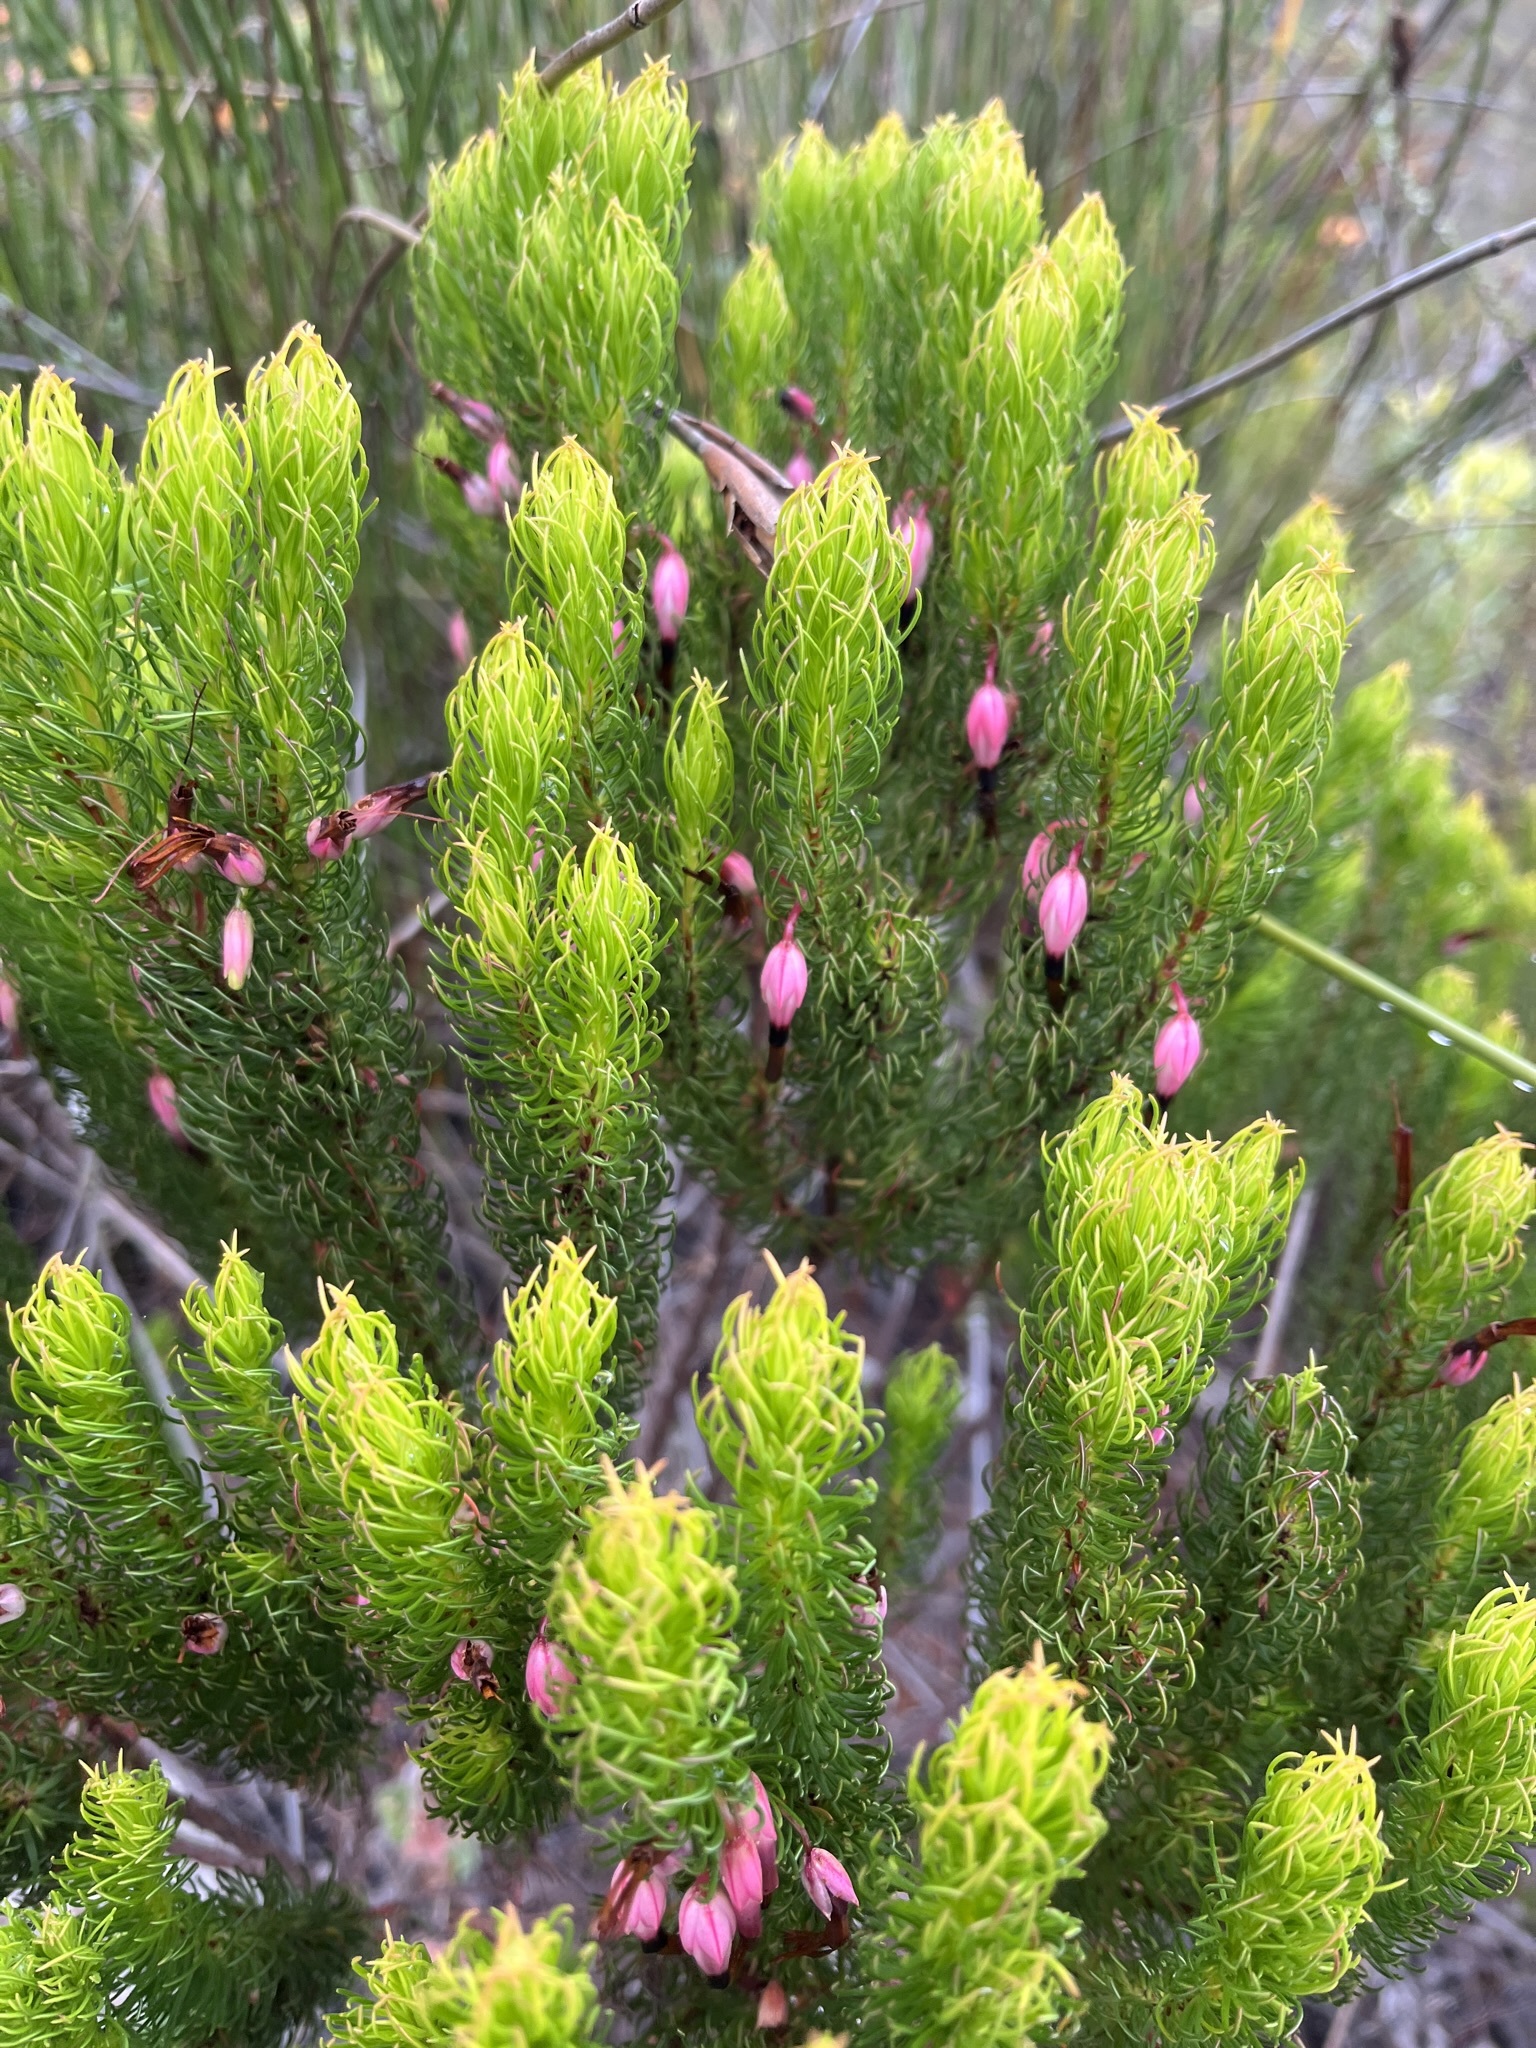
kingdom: Plantae
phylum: Tracheophyta
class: Magnoliopsida
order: Ericales
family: Ericaceae
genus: Erica
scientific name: Erica plukenetii
